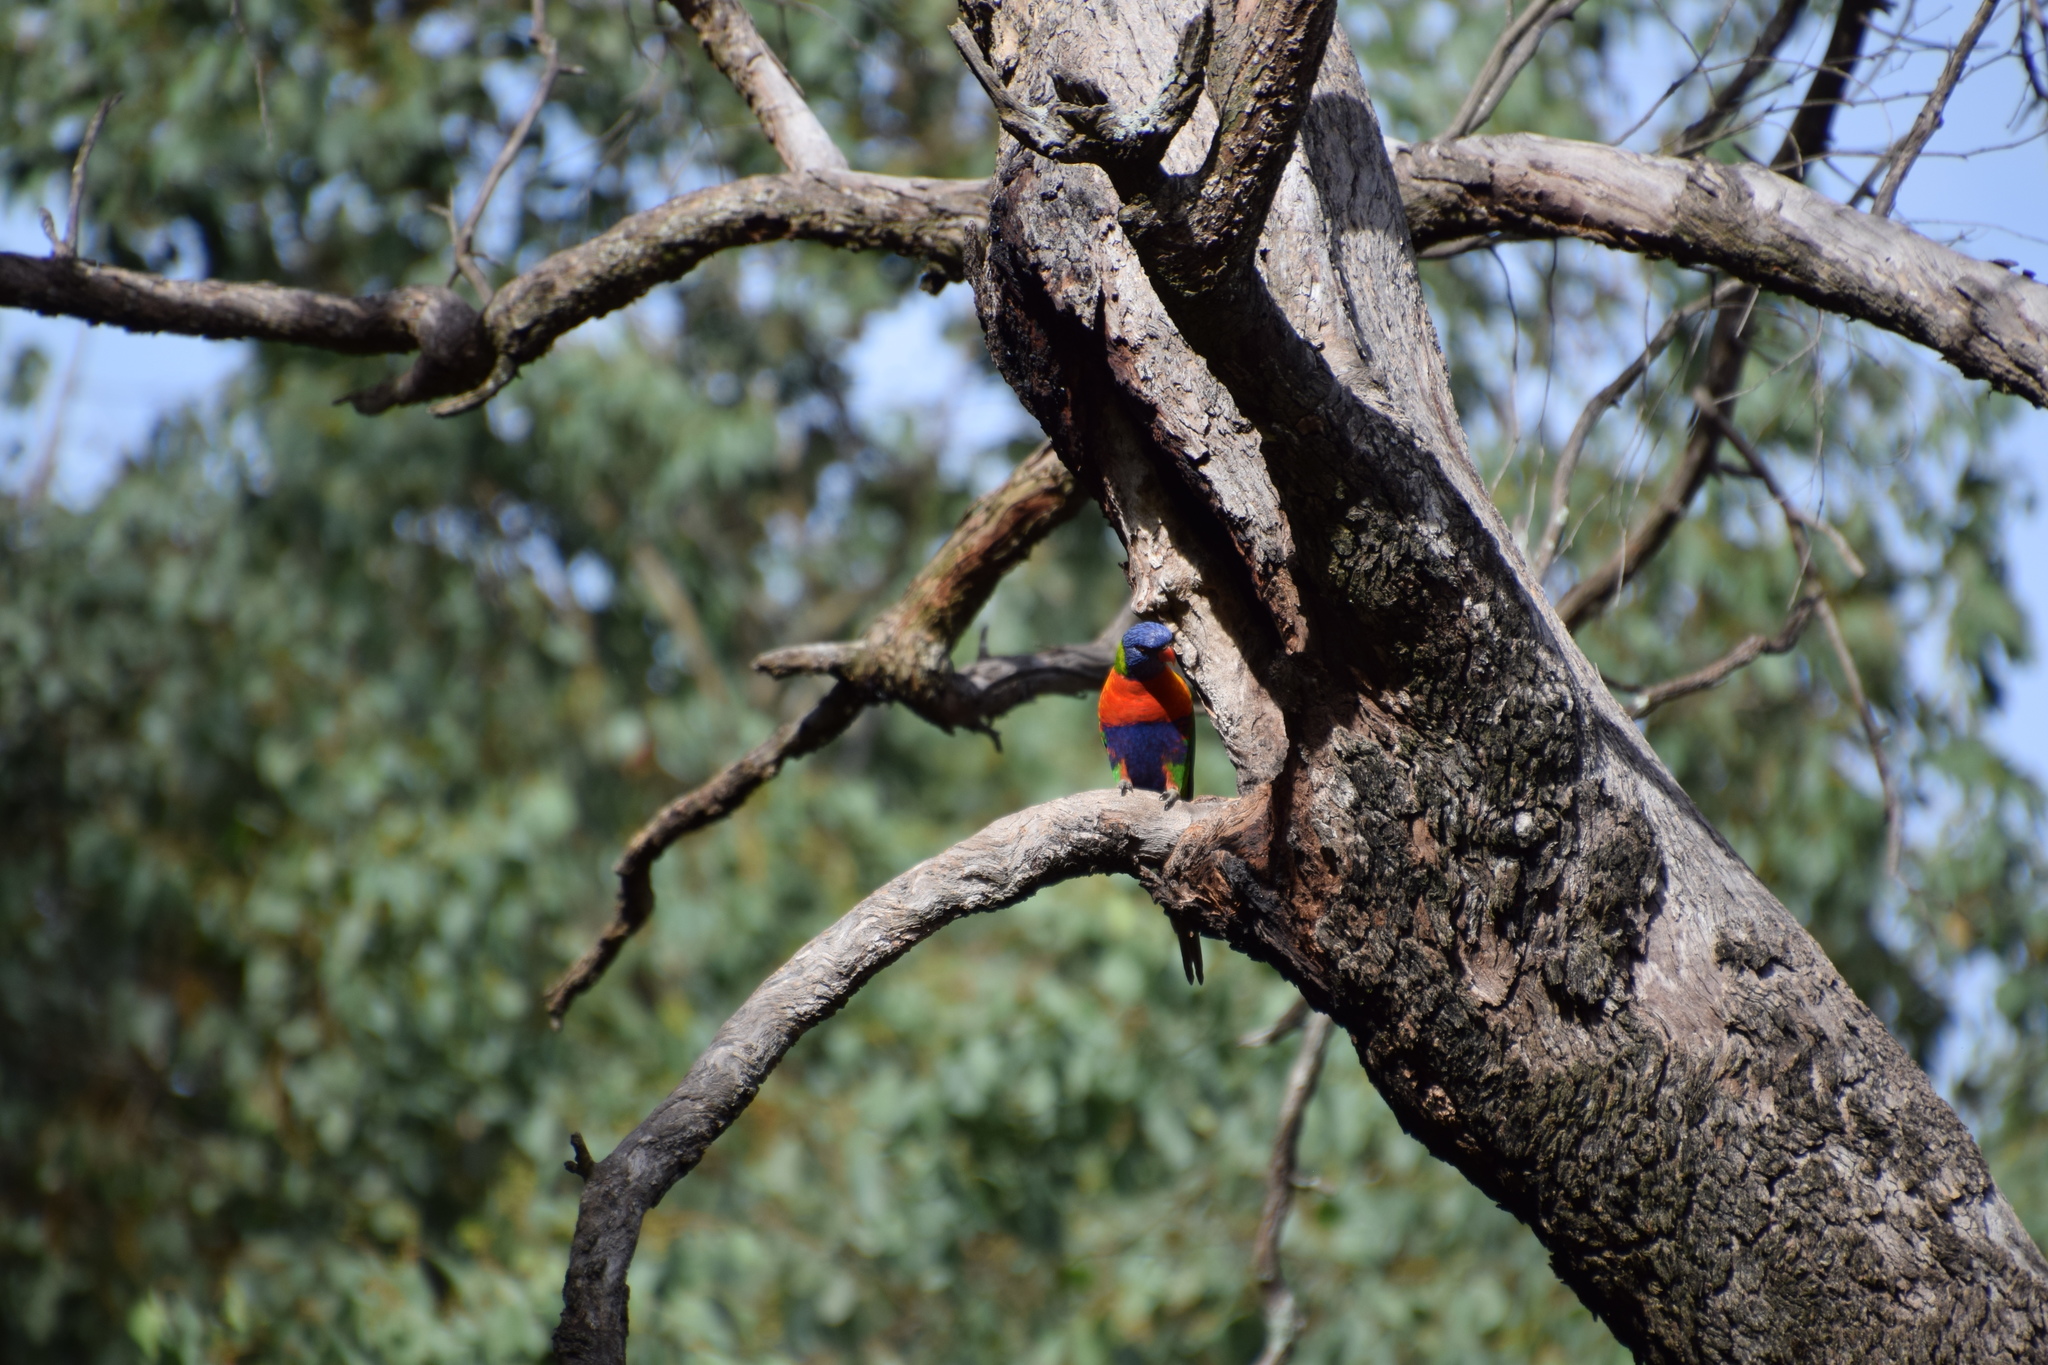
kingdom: Animalia
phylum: Chordata
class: Aves
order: Psittaciformes
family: Psittacidae
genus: Trichoglossus
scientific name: Trichoglossus haematodus
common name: Coconut lorikeet
